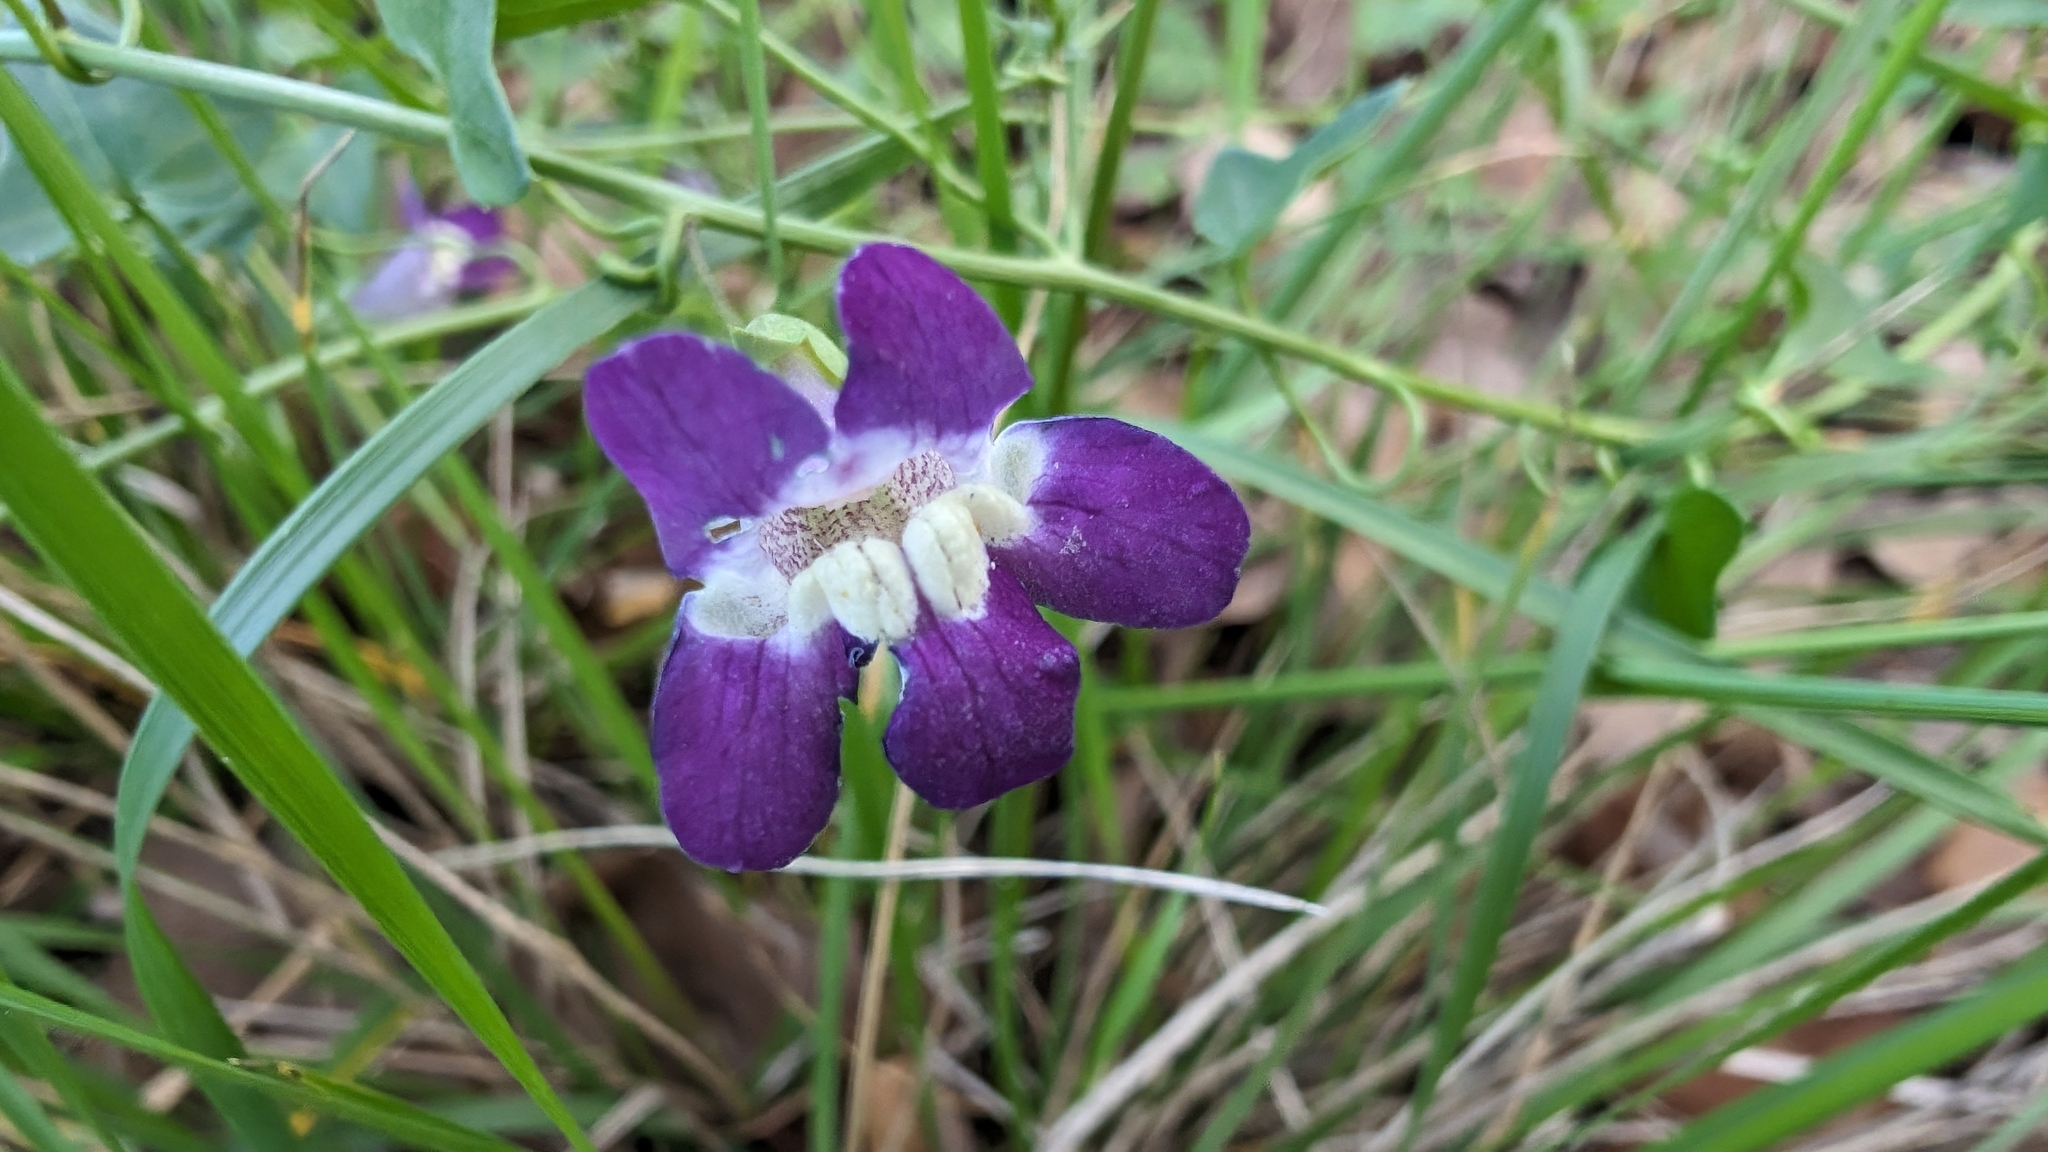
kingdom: Plantae
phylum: Tracheophyta
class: Magnoliopsida
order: Lamiales
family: Plantaginaceae
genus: Maurandella
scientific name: Maurandella antirrhiniflora
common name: Violet twining-snapdragon
